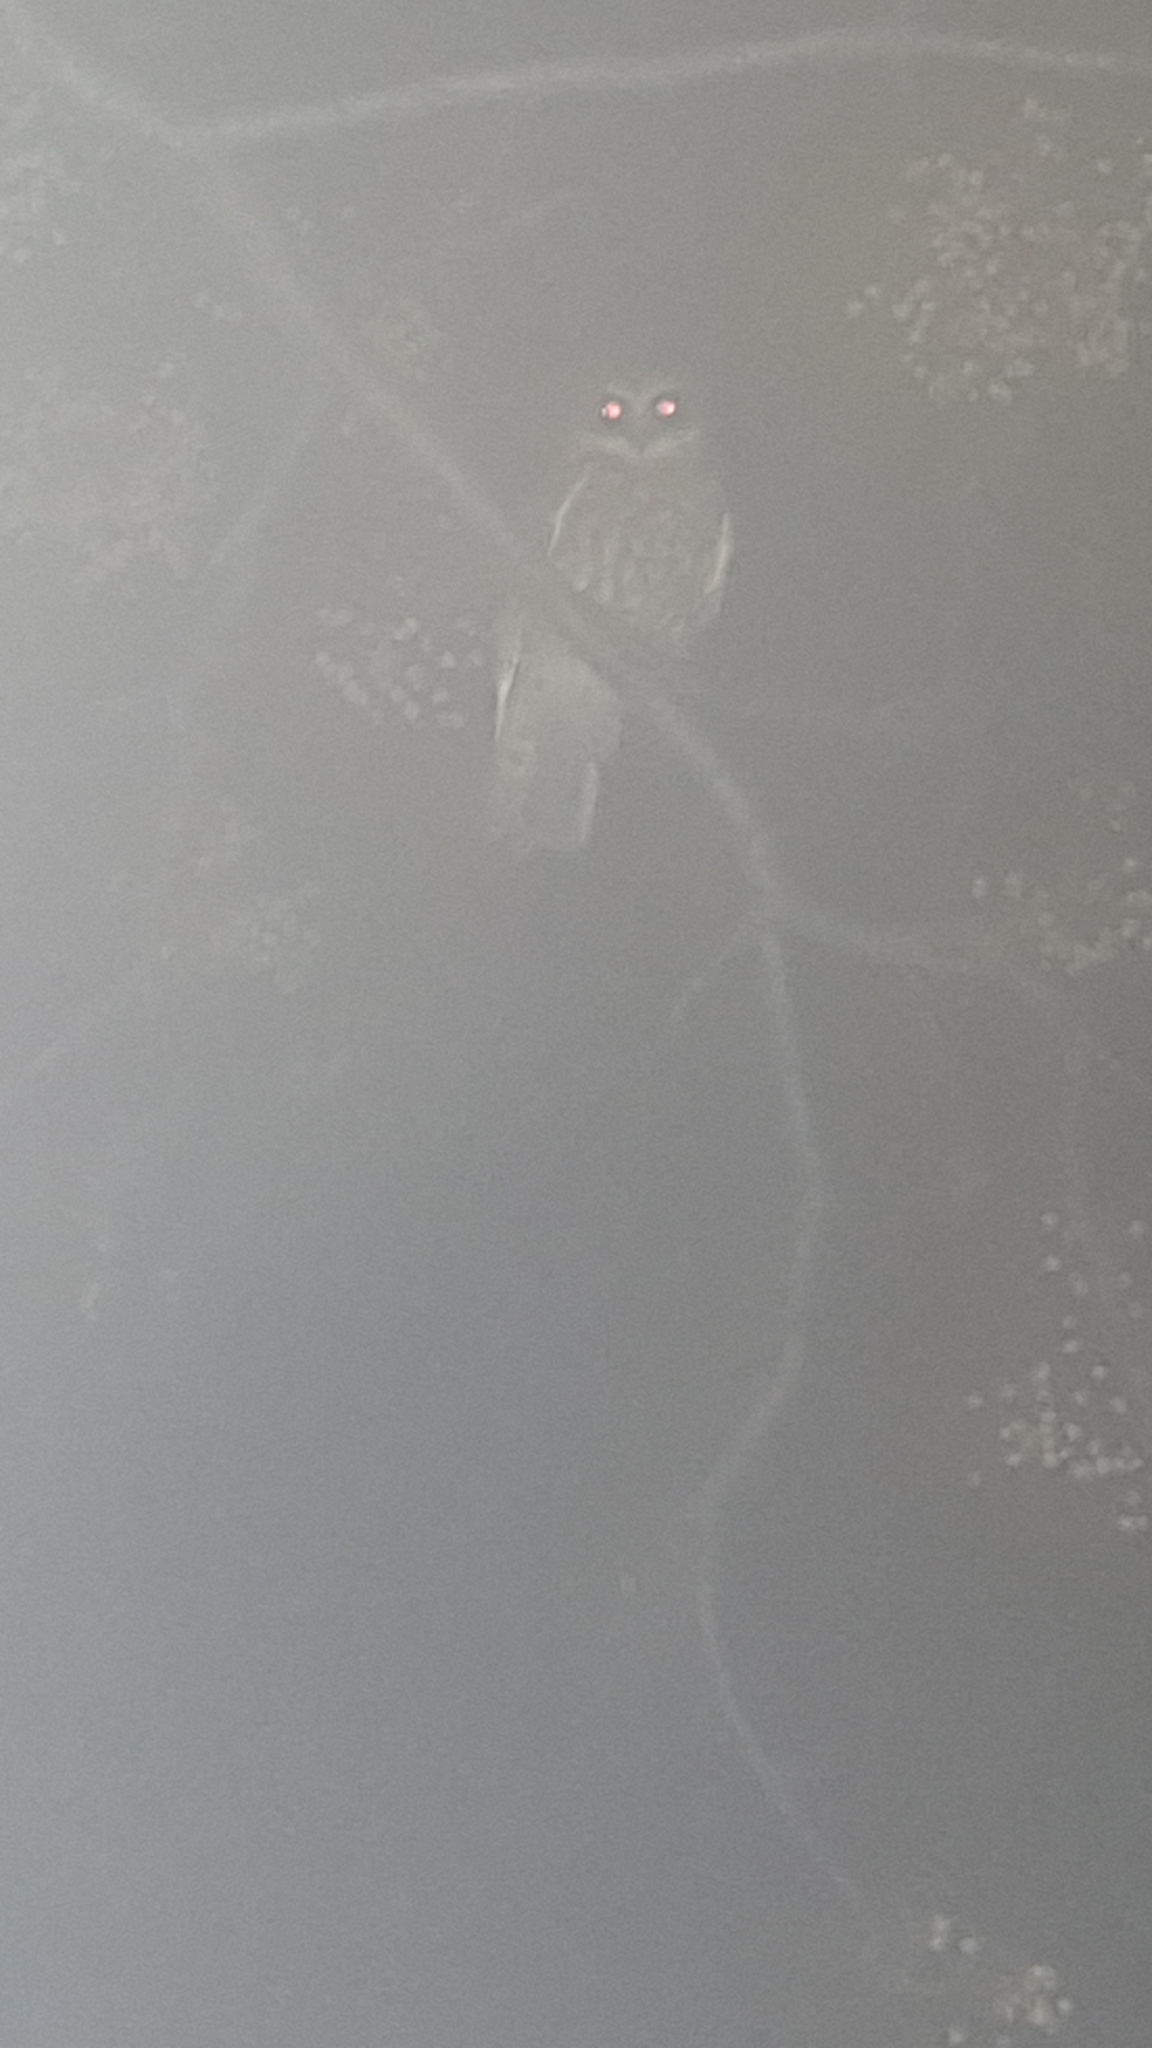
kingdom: Animalia
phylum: Chordata
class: Aves
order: Strigiformes
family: Strigidae
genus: Ninox
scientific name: Ninox boobook
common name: Southern boobook
